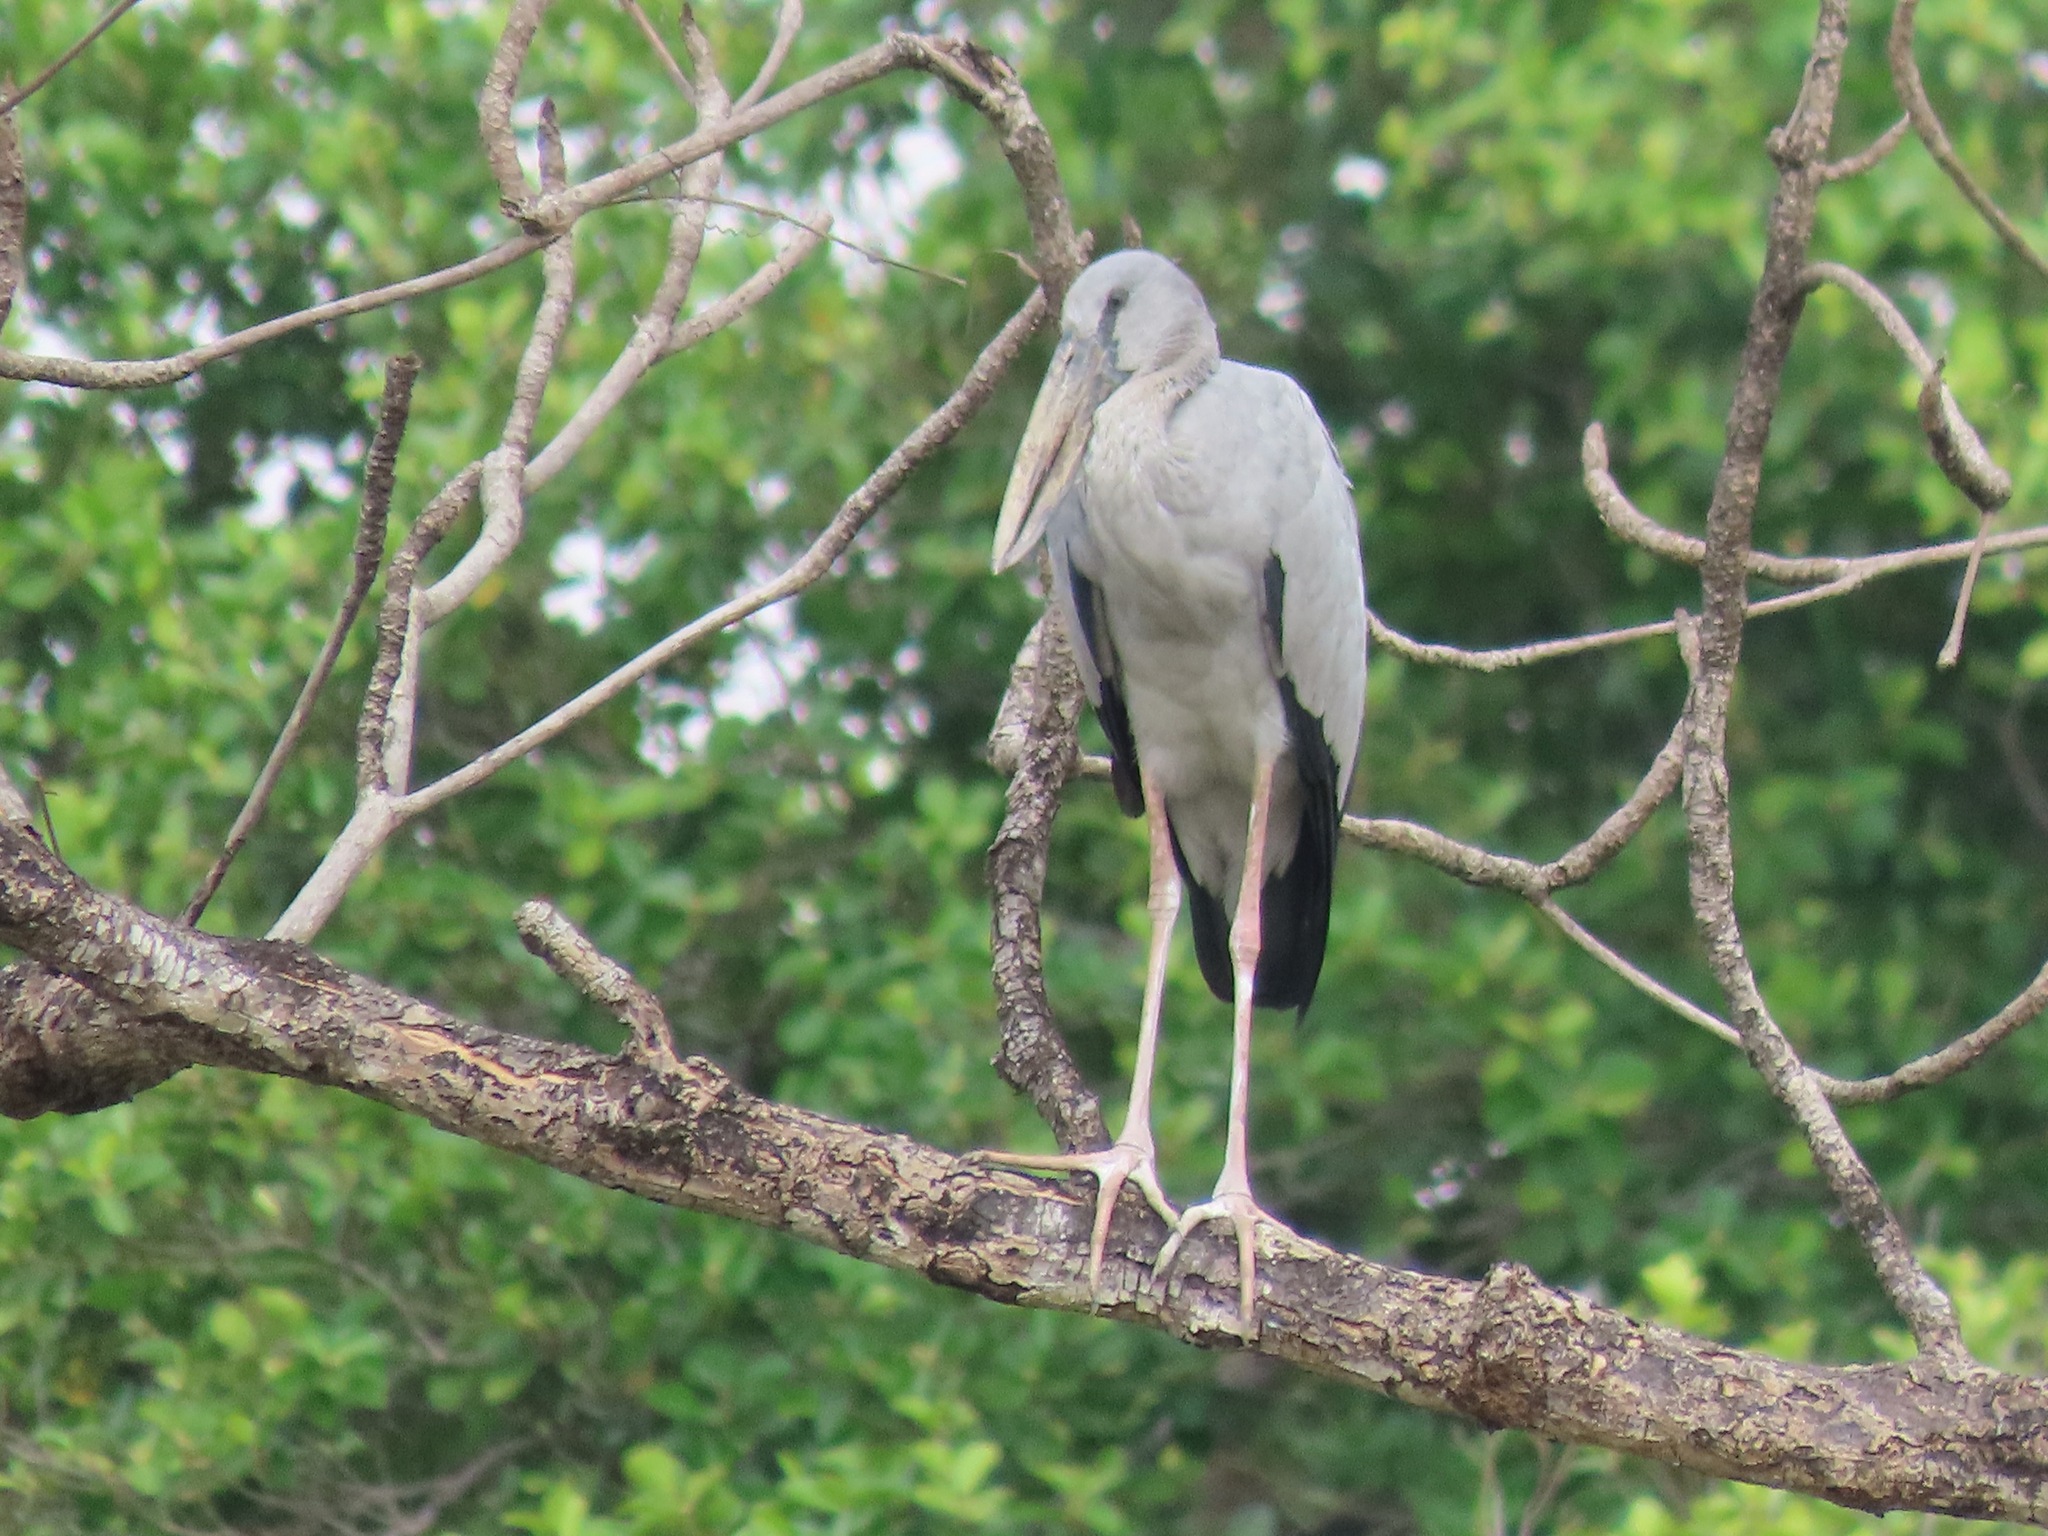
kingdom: Animalia
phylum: Chordata
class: Aves
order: Ciconiiformes
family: Ciconiidae
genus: Anastomus
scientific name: Anastomus oscitans
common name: Asian openbill
